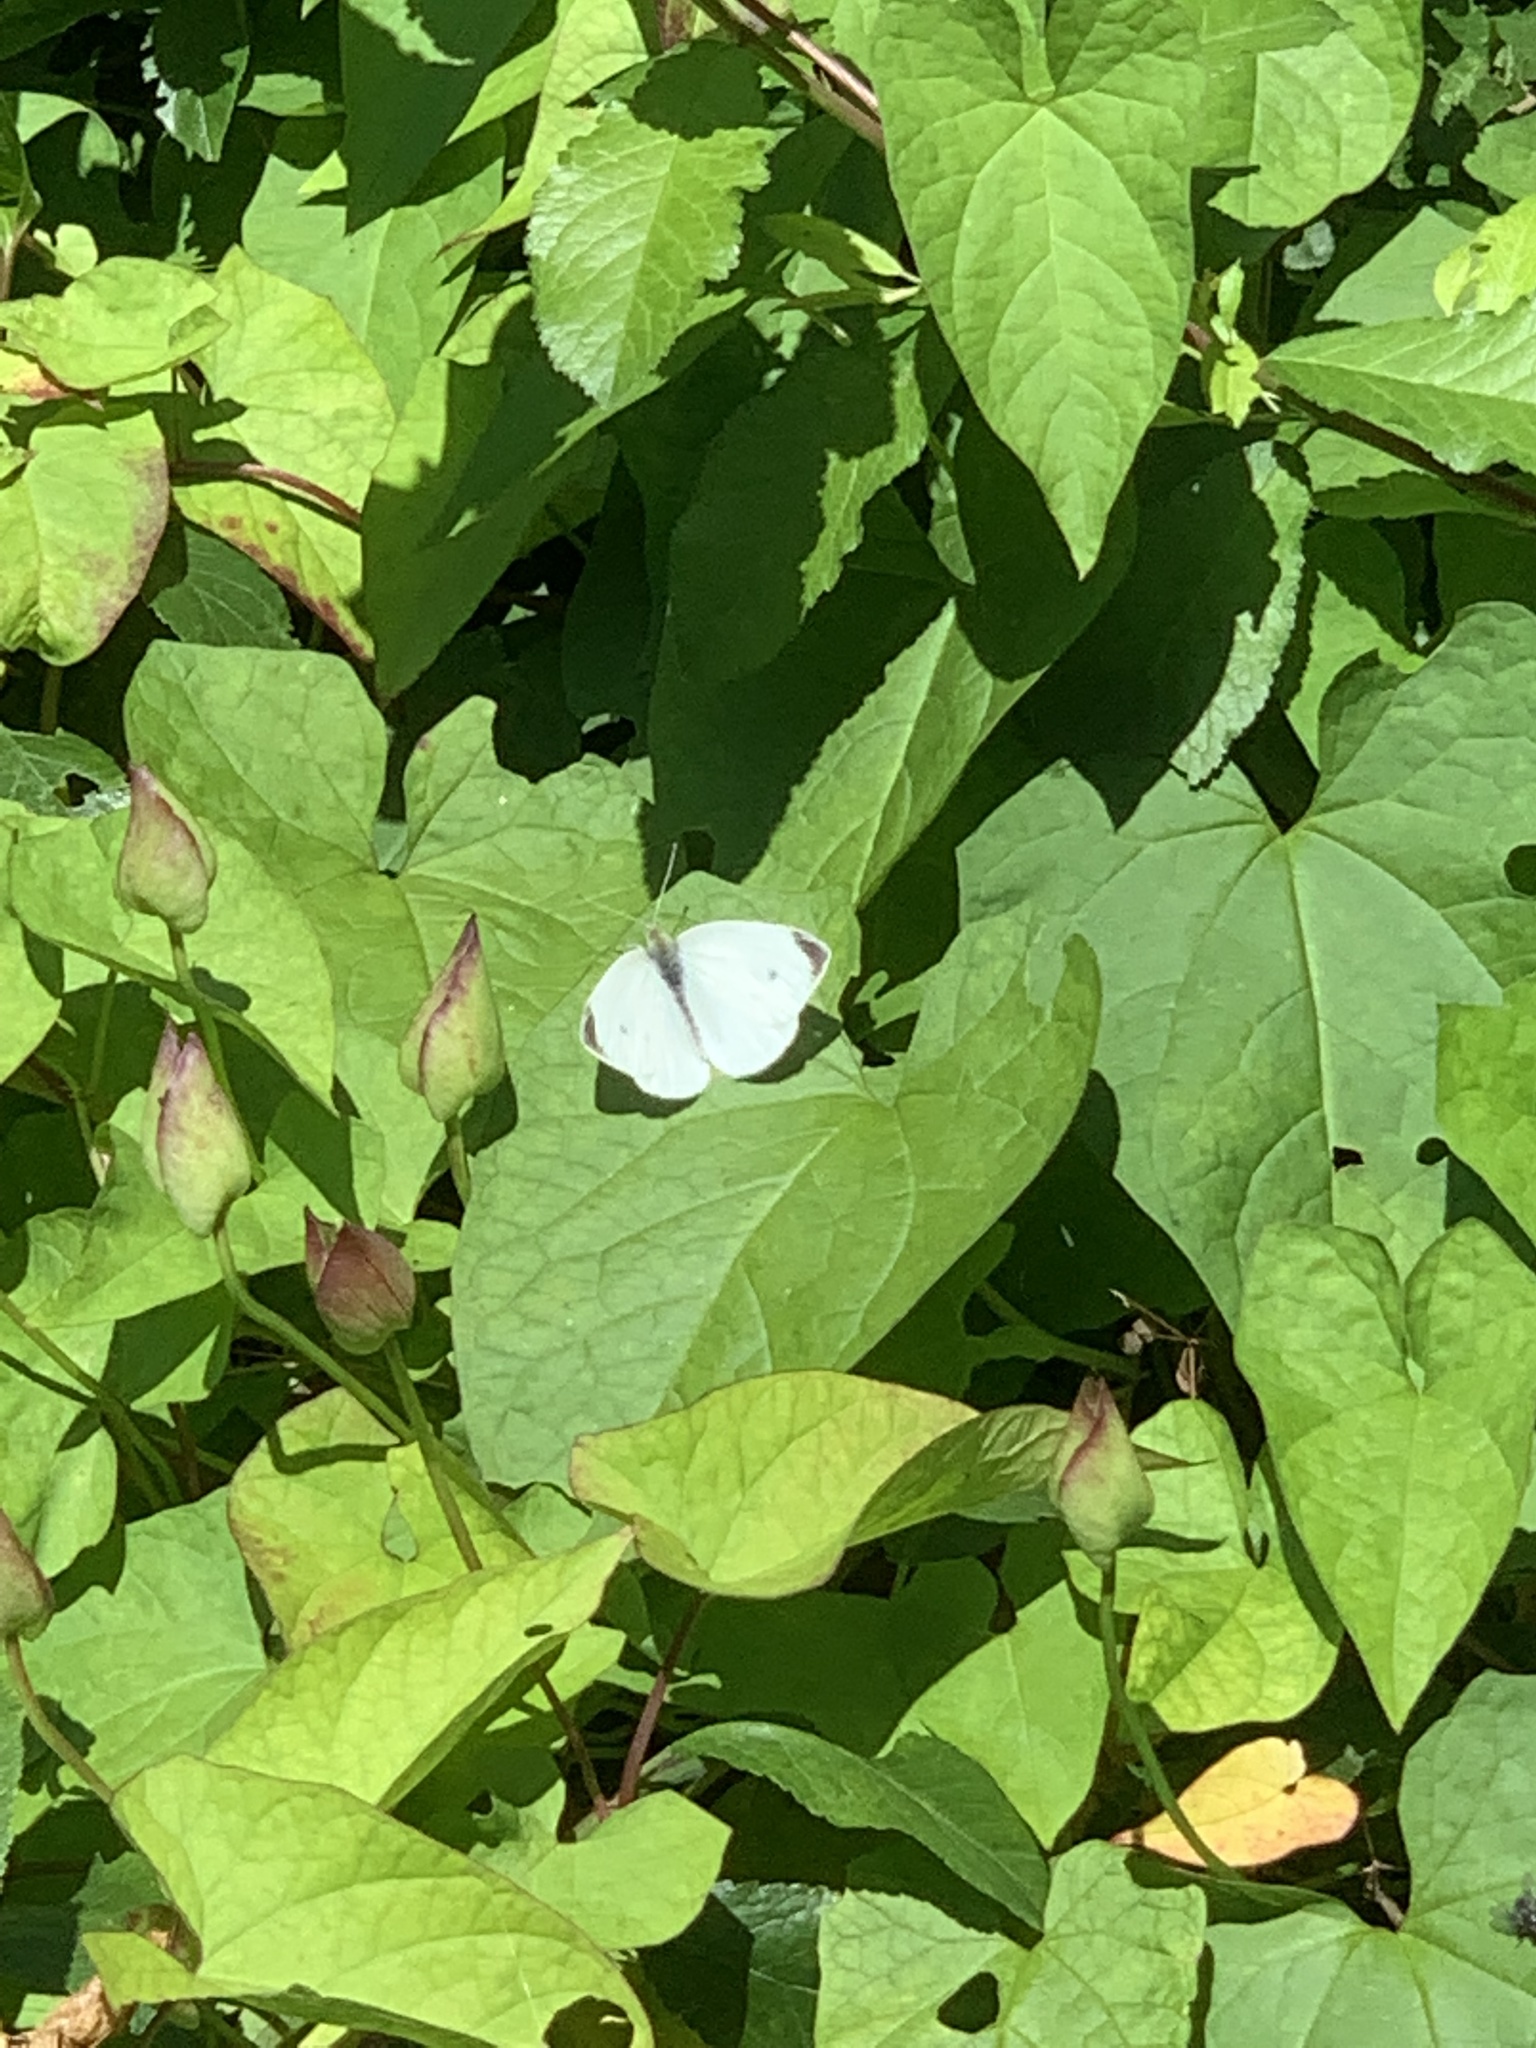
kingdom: Animalia
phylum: Arthropoda
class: Insecta
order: Lepidoptera
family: Pieridae
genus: Pieris
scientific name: Pieris rapae
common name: Small white
